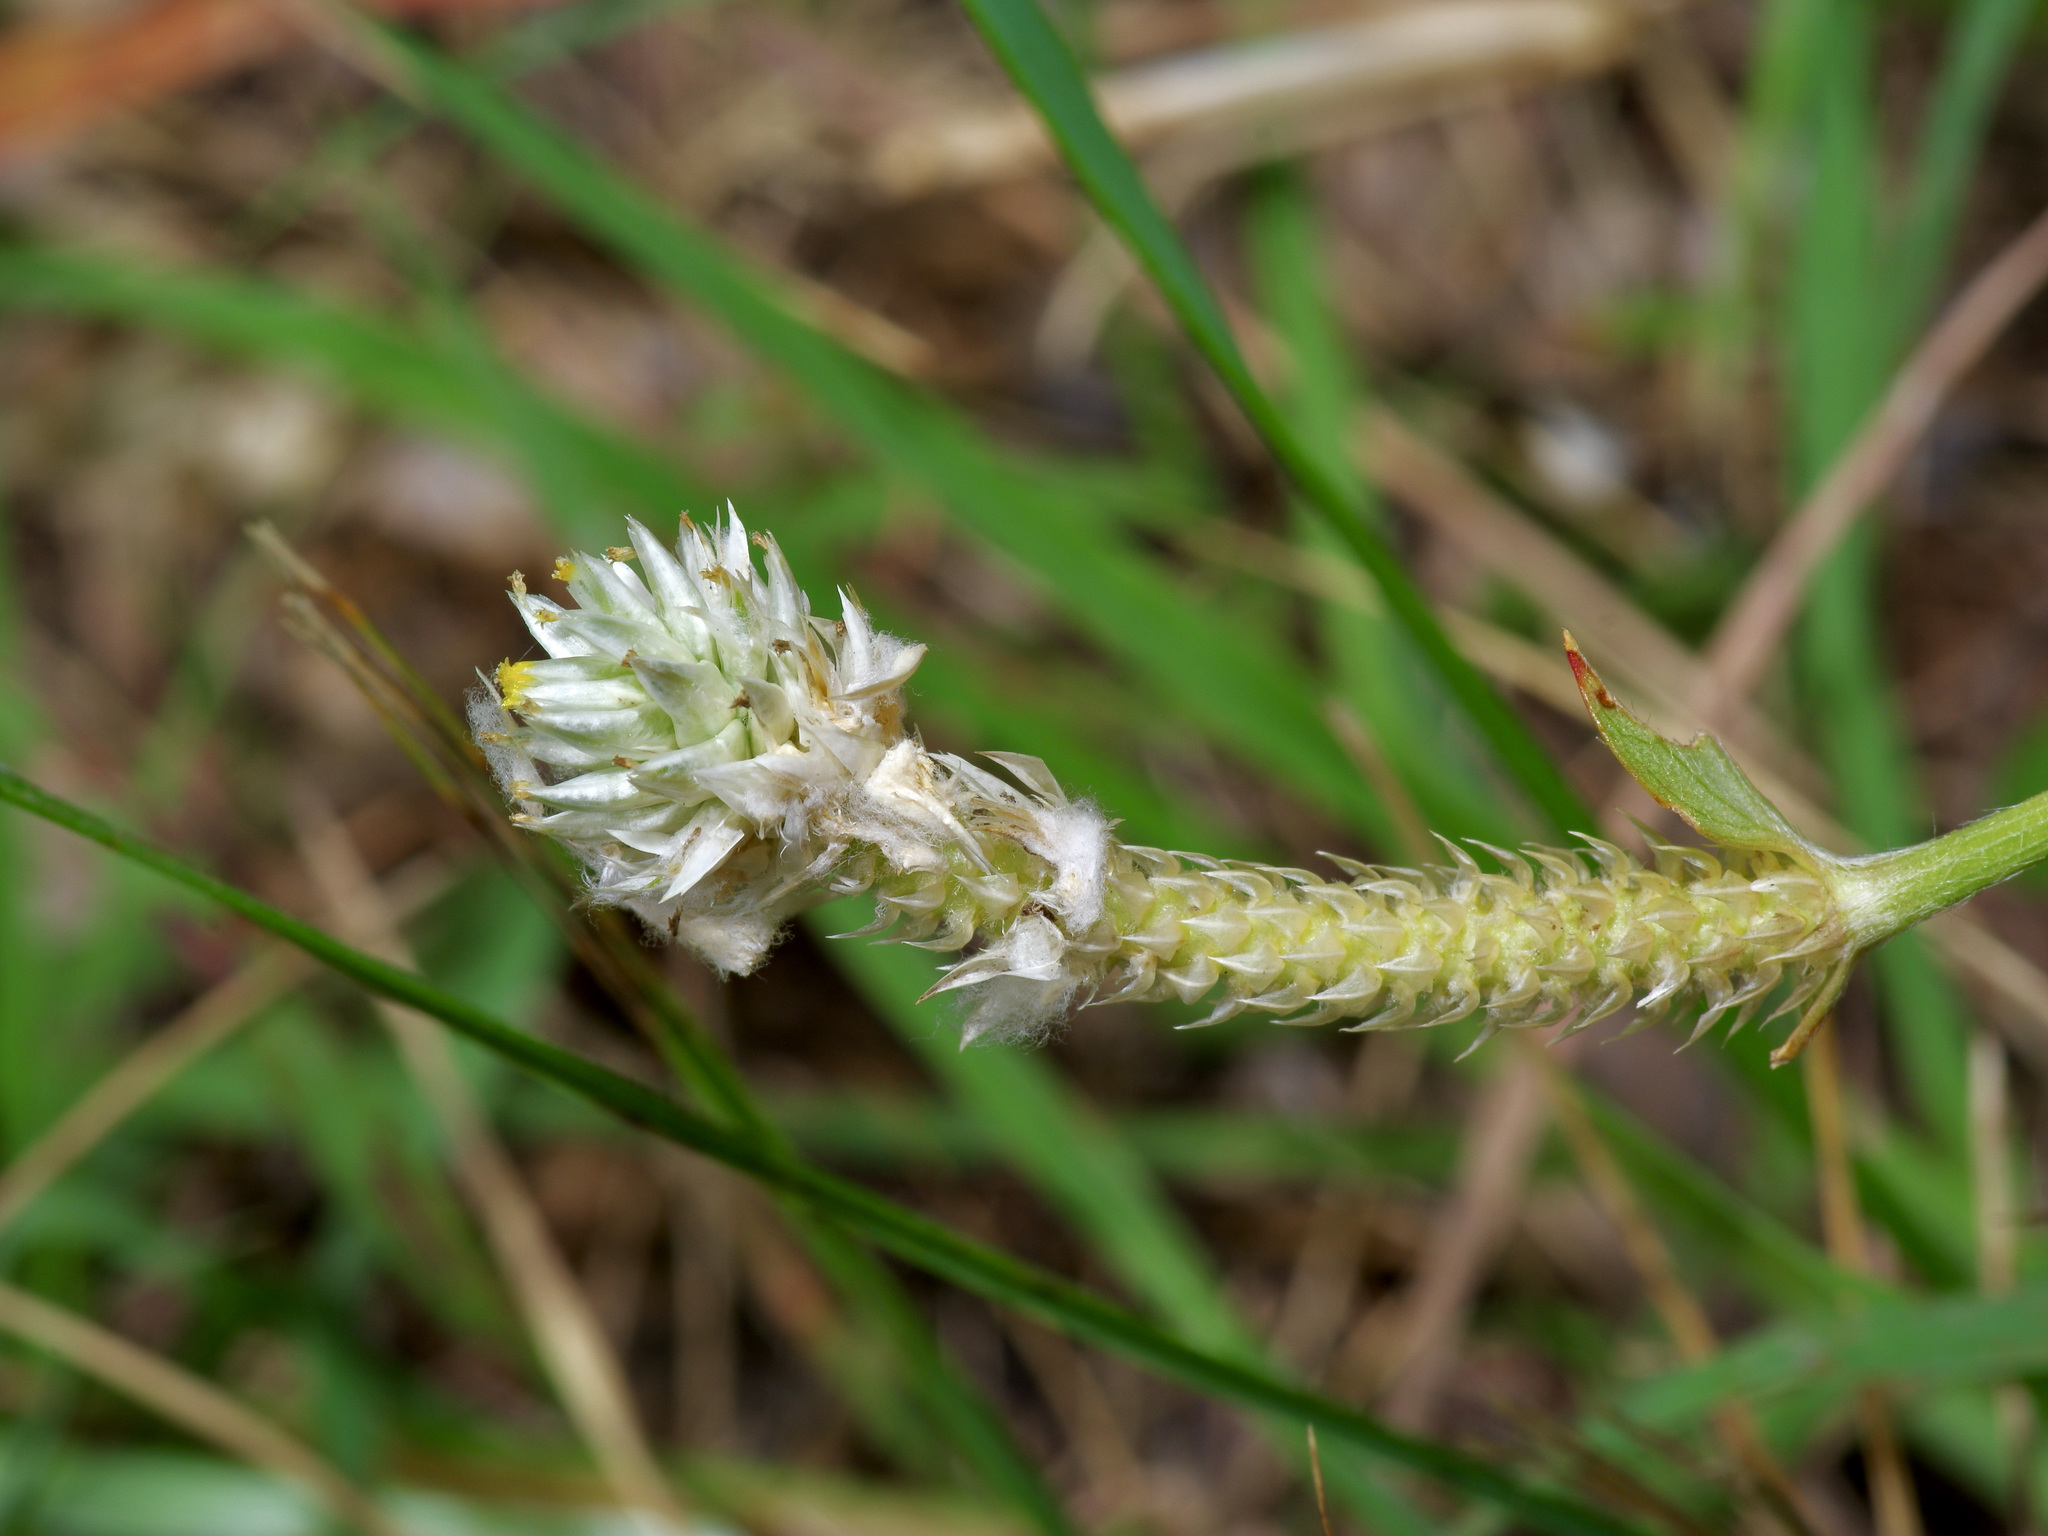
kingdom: Plantae
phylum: Tracheophyta
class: Magnoliopsida
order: Caryophyllales
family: Amaranthaceae
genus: Gomphrena
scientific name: Gomphrena serrata
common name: Arrasa con todo
